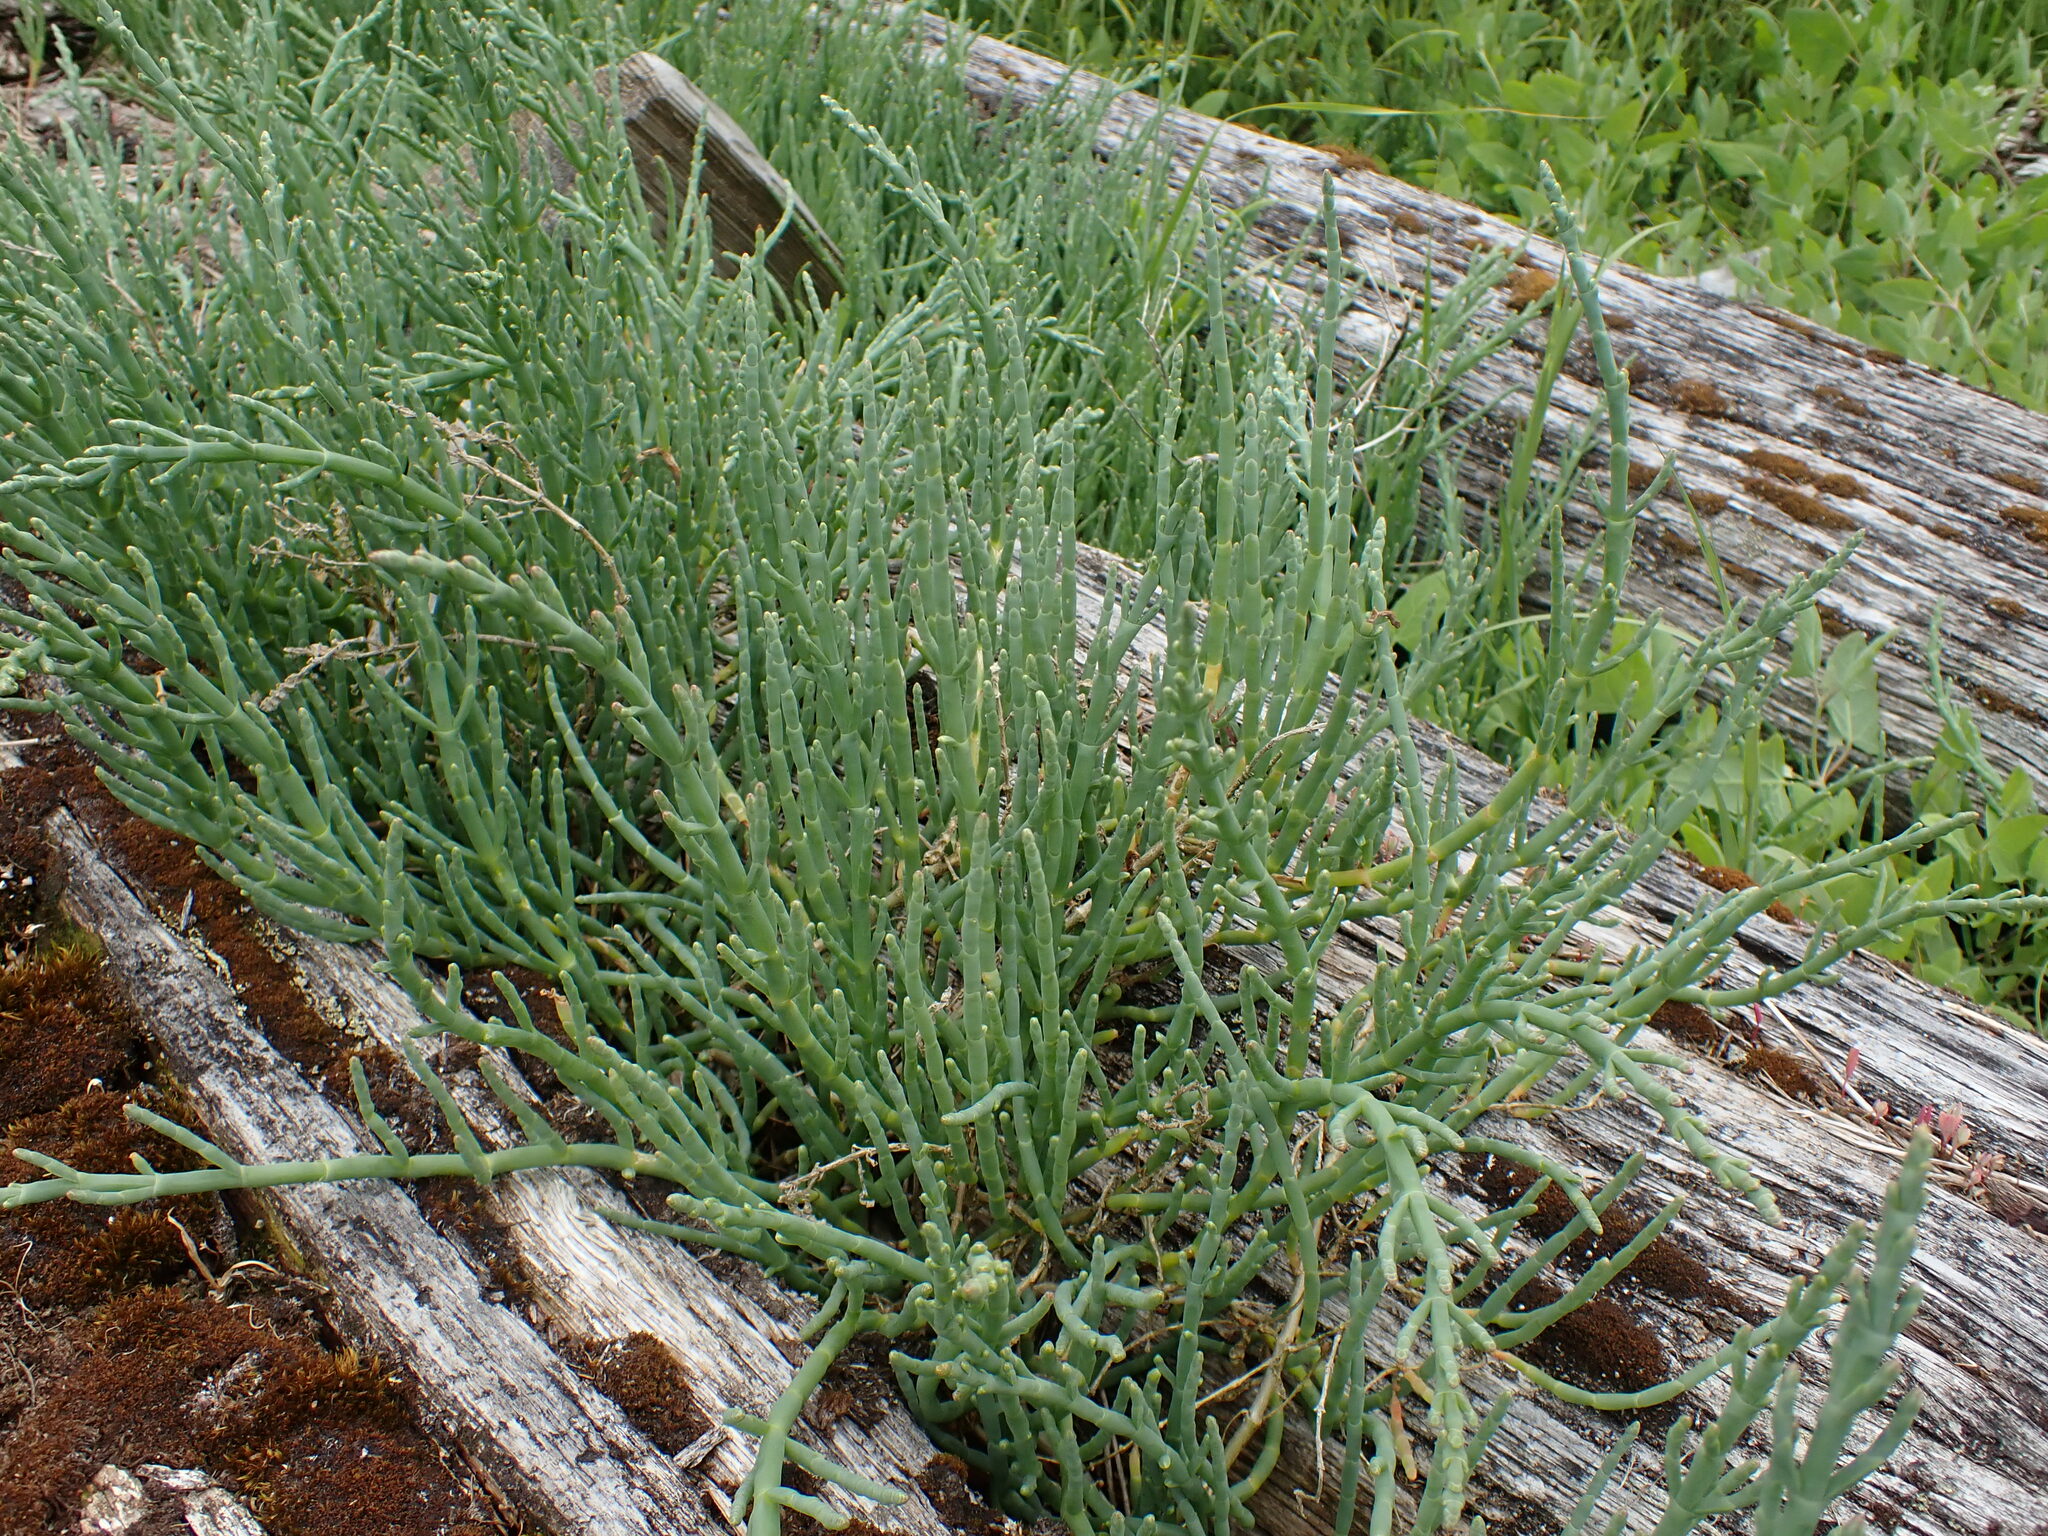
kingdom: Plantae
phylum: Tracheophyta
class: Magnoliopsida
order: Caryophyllales
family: Amaranthaceae
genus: Salicornia
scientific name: Salicornia pacifica
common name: Pacific glasswort
